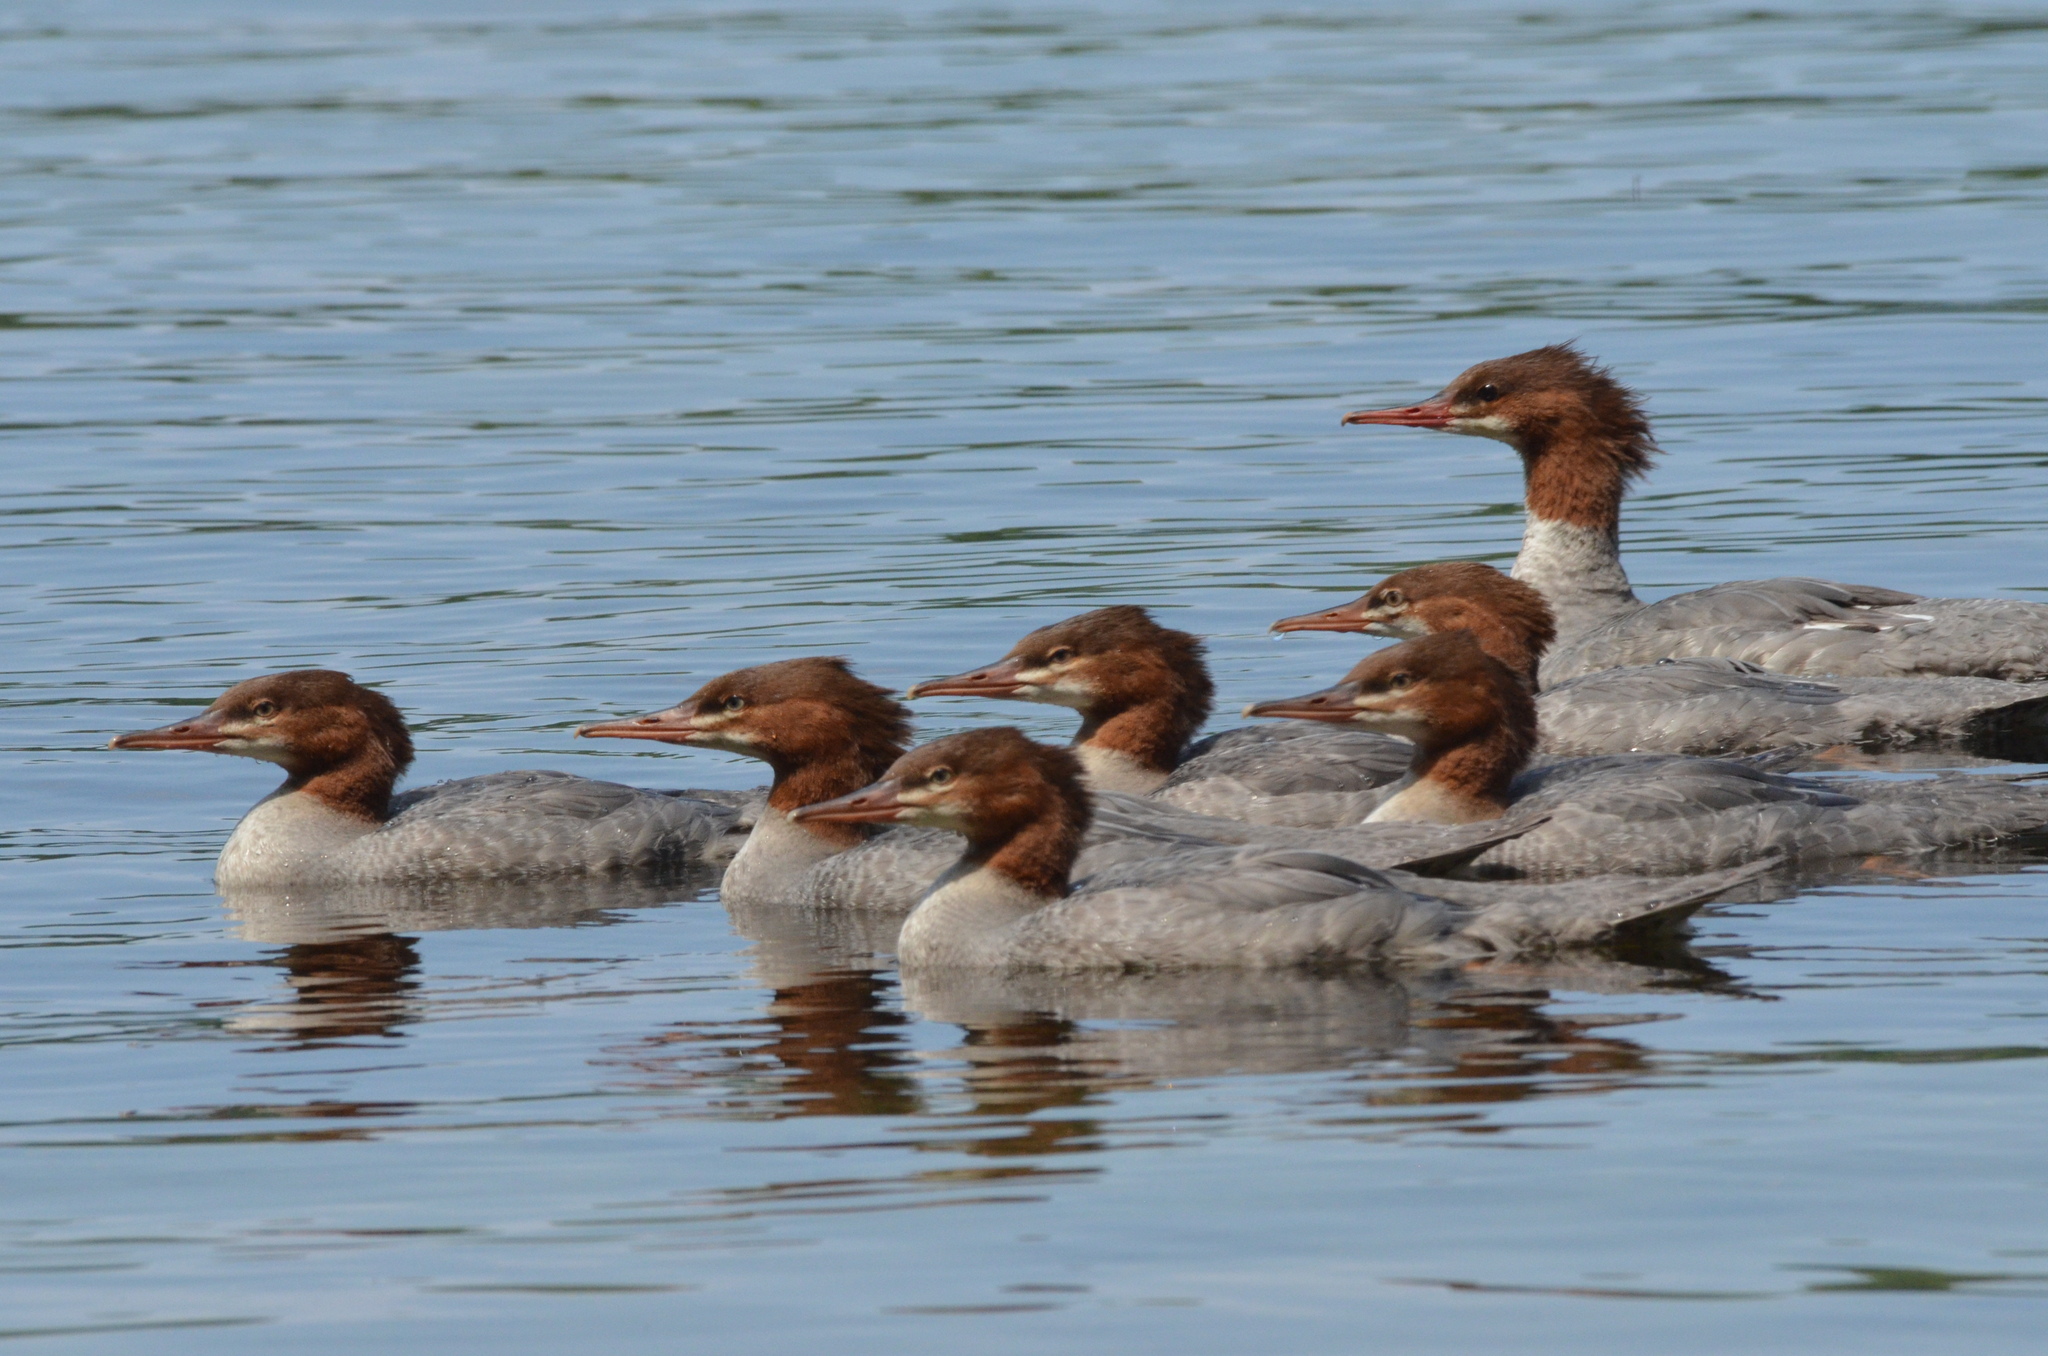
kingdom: Animalia
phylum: Chordata
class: Aves
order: Anseriformes
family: Anatidae
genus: Mergus
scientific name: Mergus merganser
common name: Common merganser
